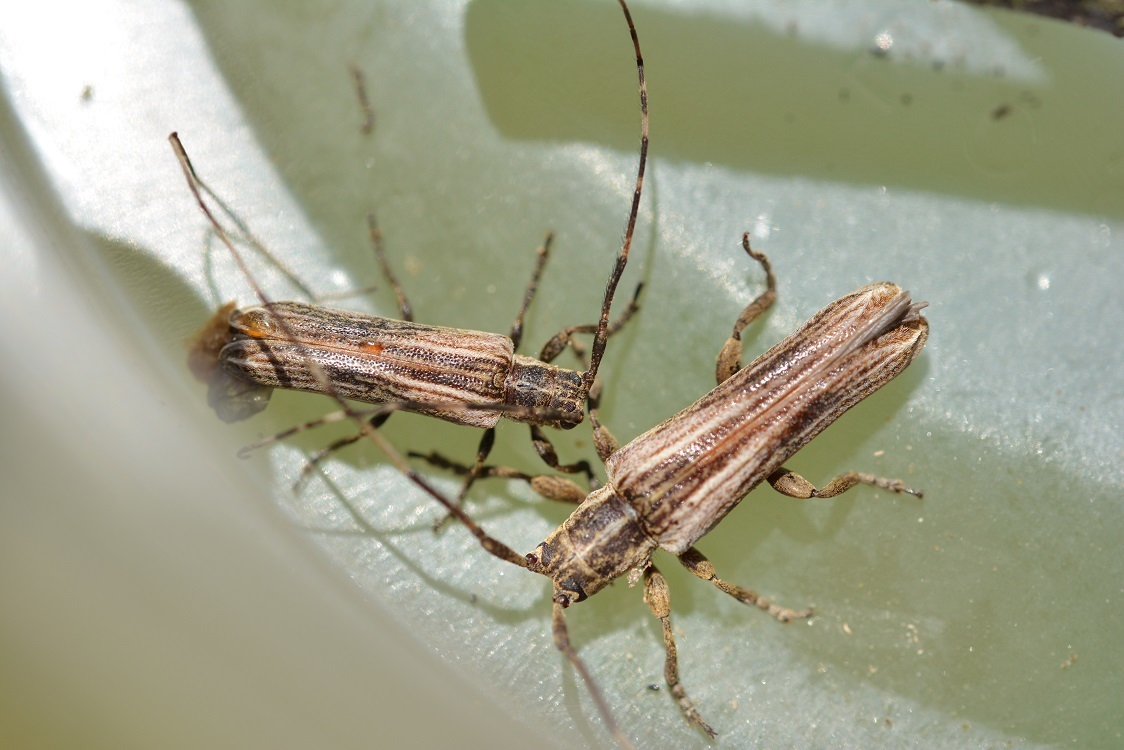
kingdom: Animalia
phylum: Arthropoda
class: Insecta
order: Coleoptera
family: Cerambycidae
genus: Cacostola
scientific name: Cacostola rugicollis
